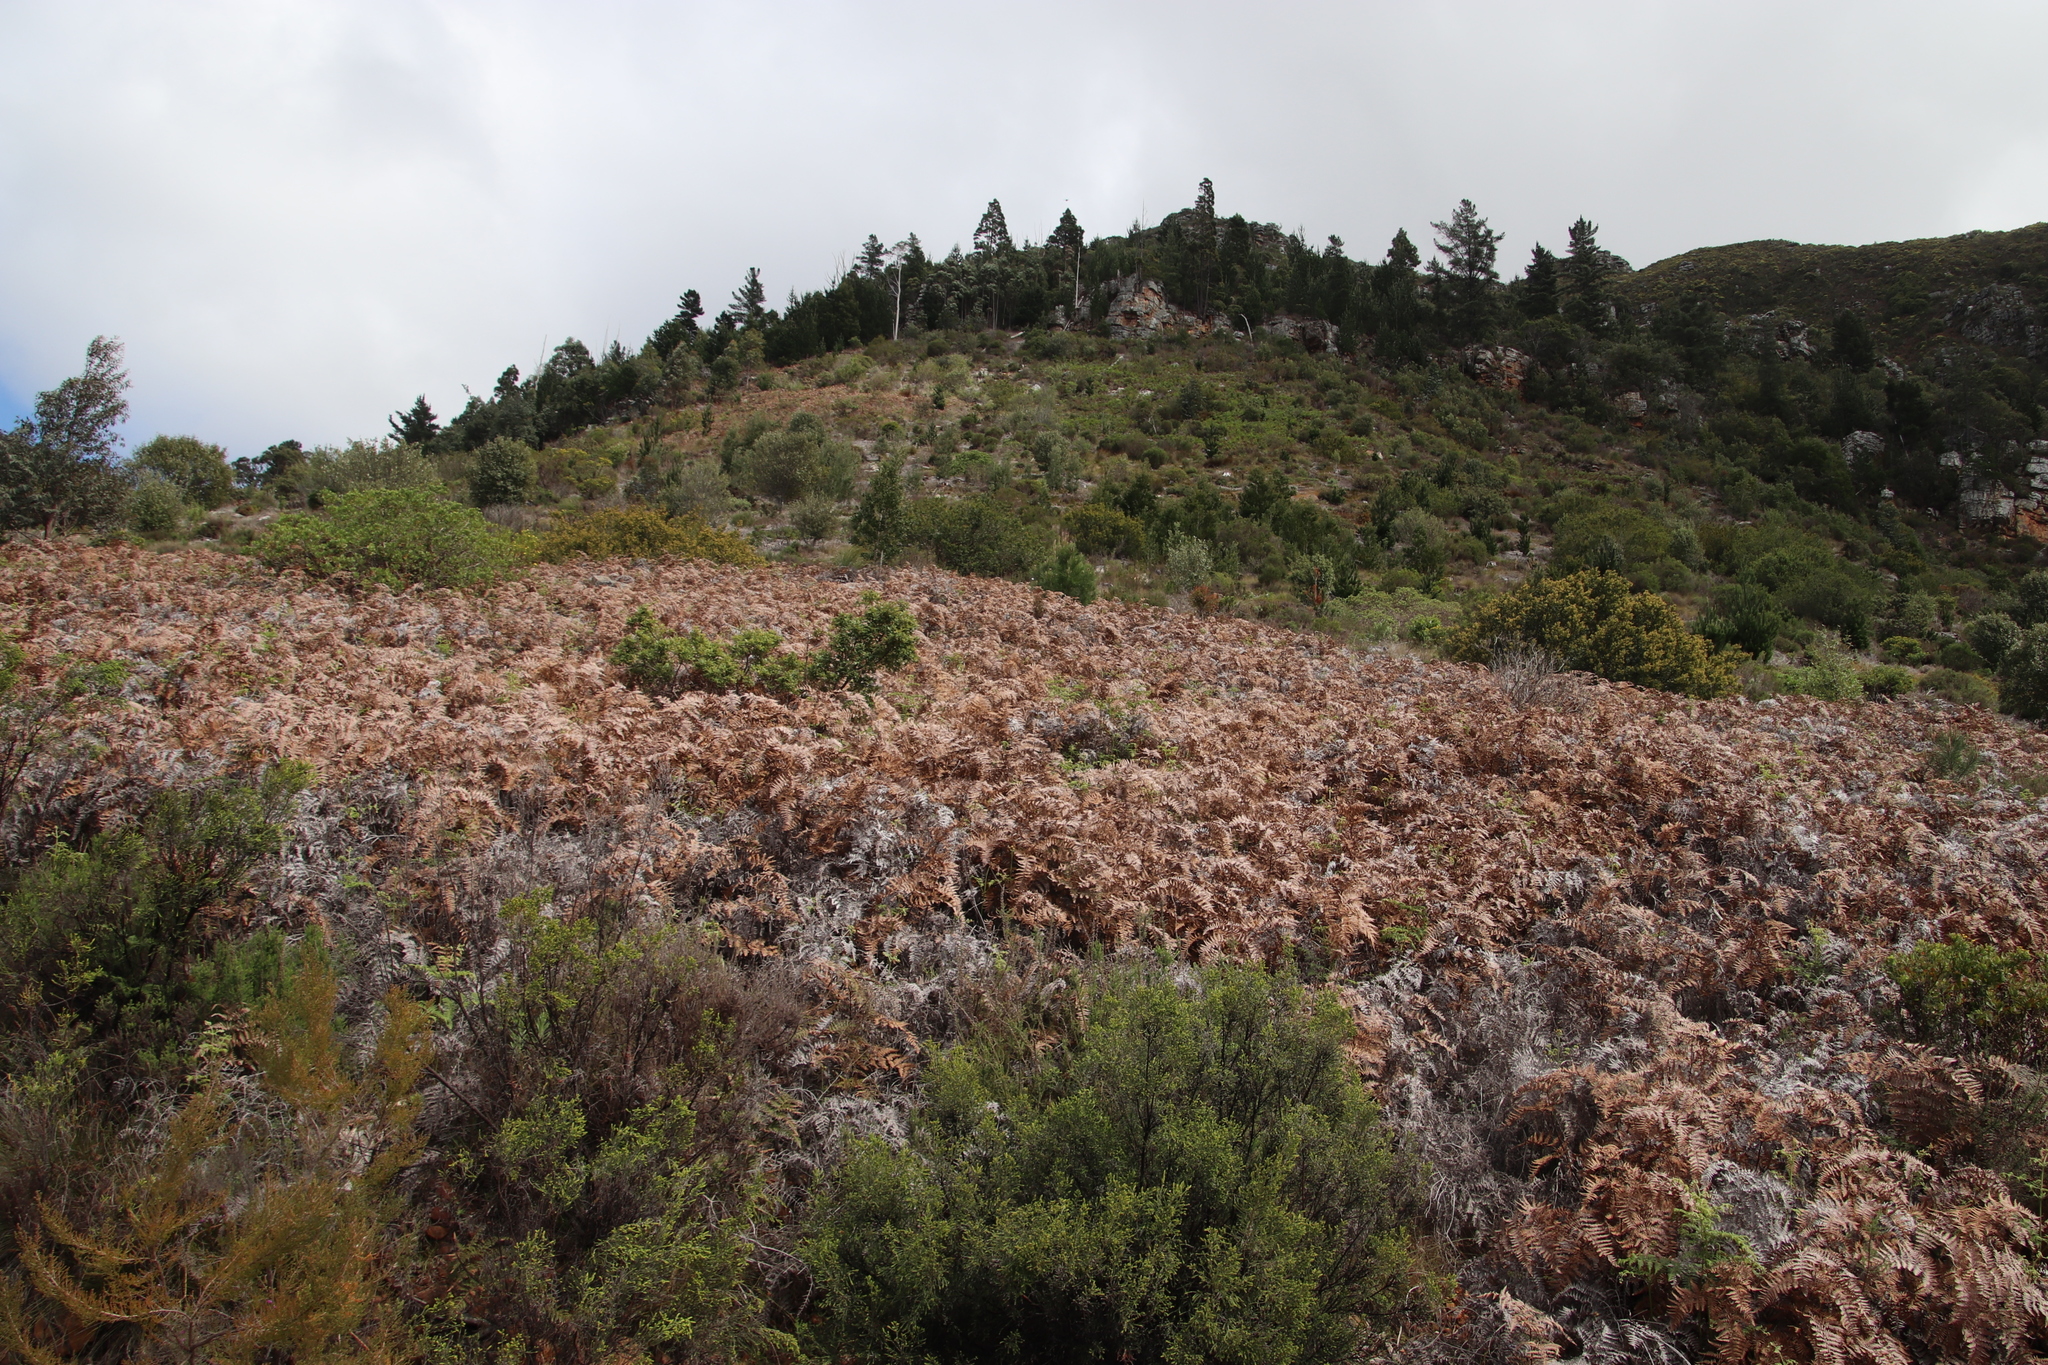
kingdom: Plantae
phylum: Tracheophyta
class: Polypodiopsida
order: Polypodiales
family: Dennstaedtiaceae
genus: Pteridium
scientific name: Pteridium aquilinum
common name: Bracken
